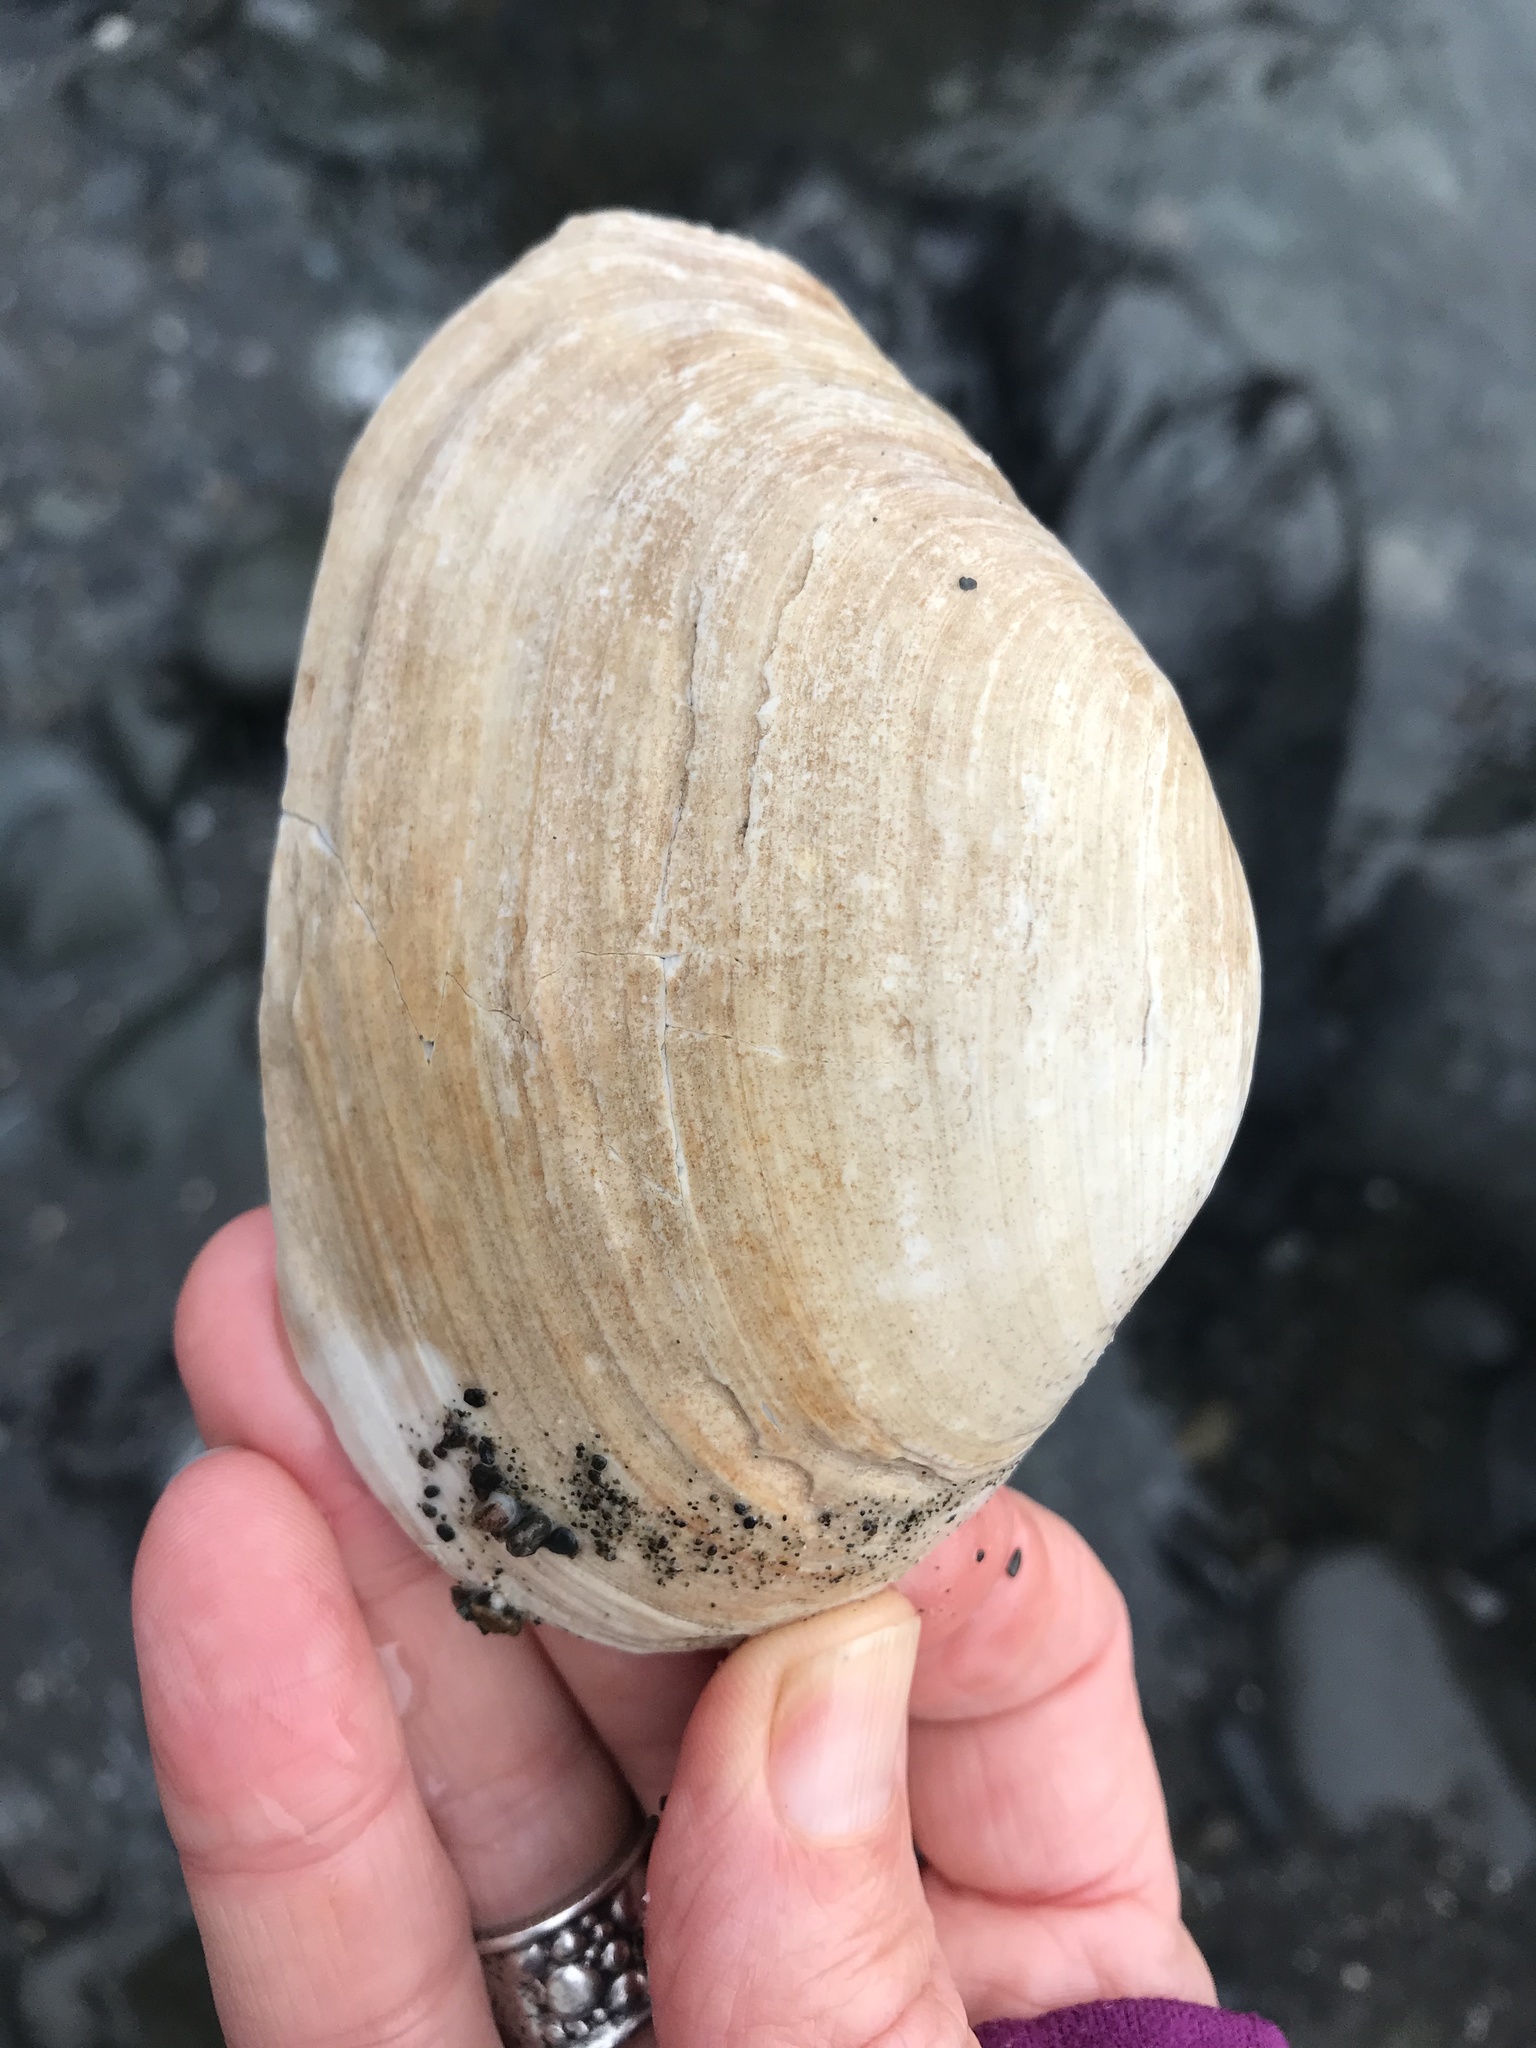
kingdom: Animalia
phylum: Mollusca
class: Bivalvia
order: Venerida
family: Mactridae
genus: Tresus
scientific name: Tresus nuttallii
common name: Pacific gaper clam
